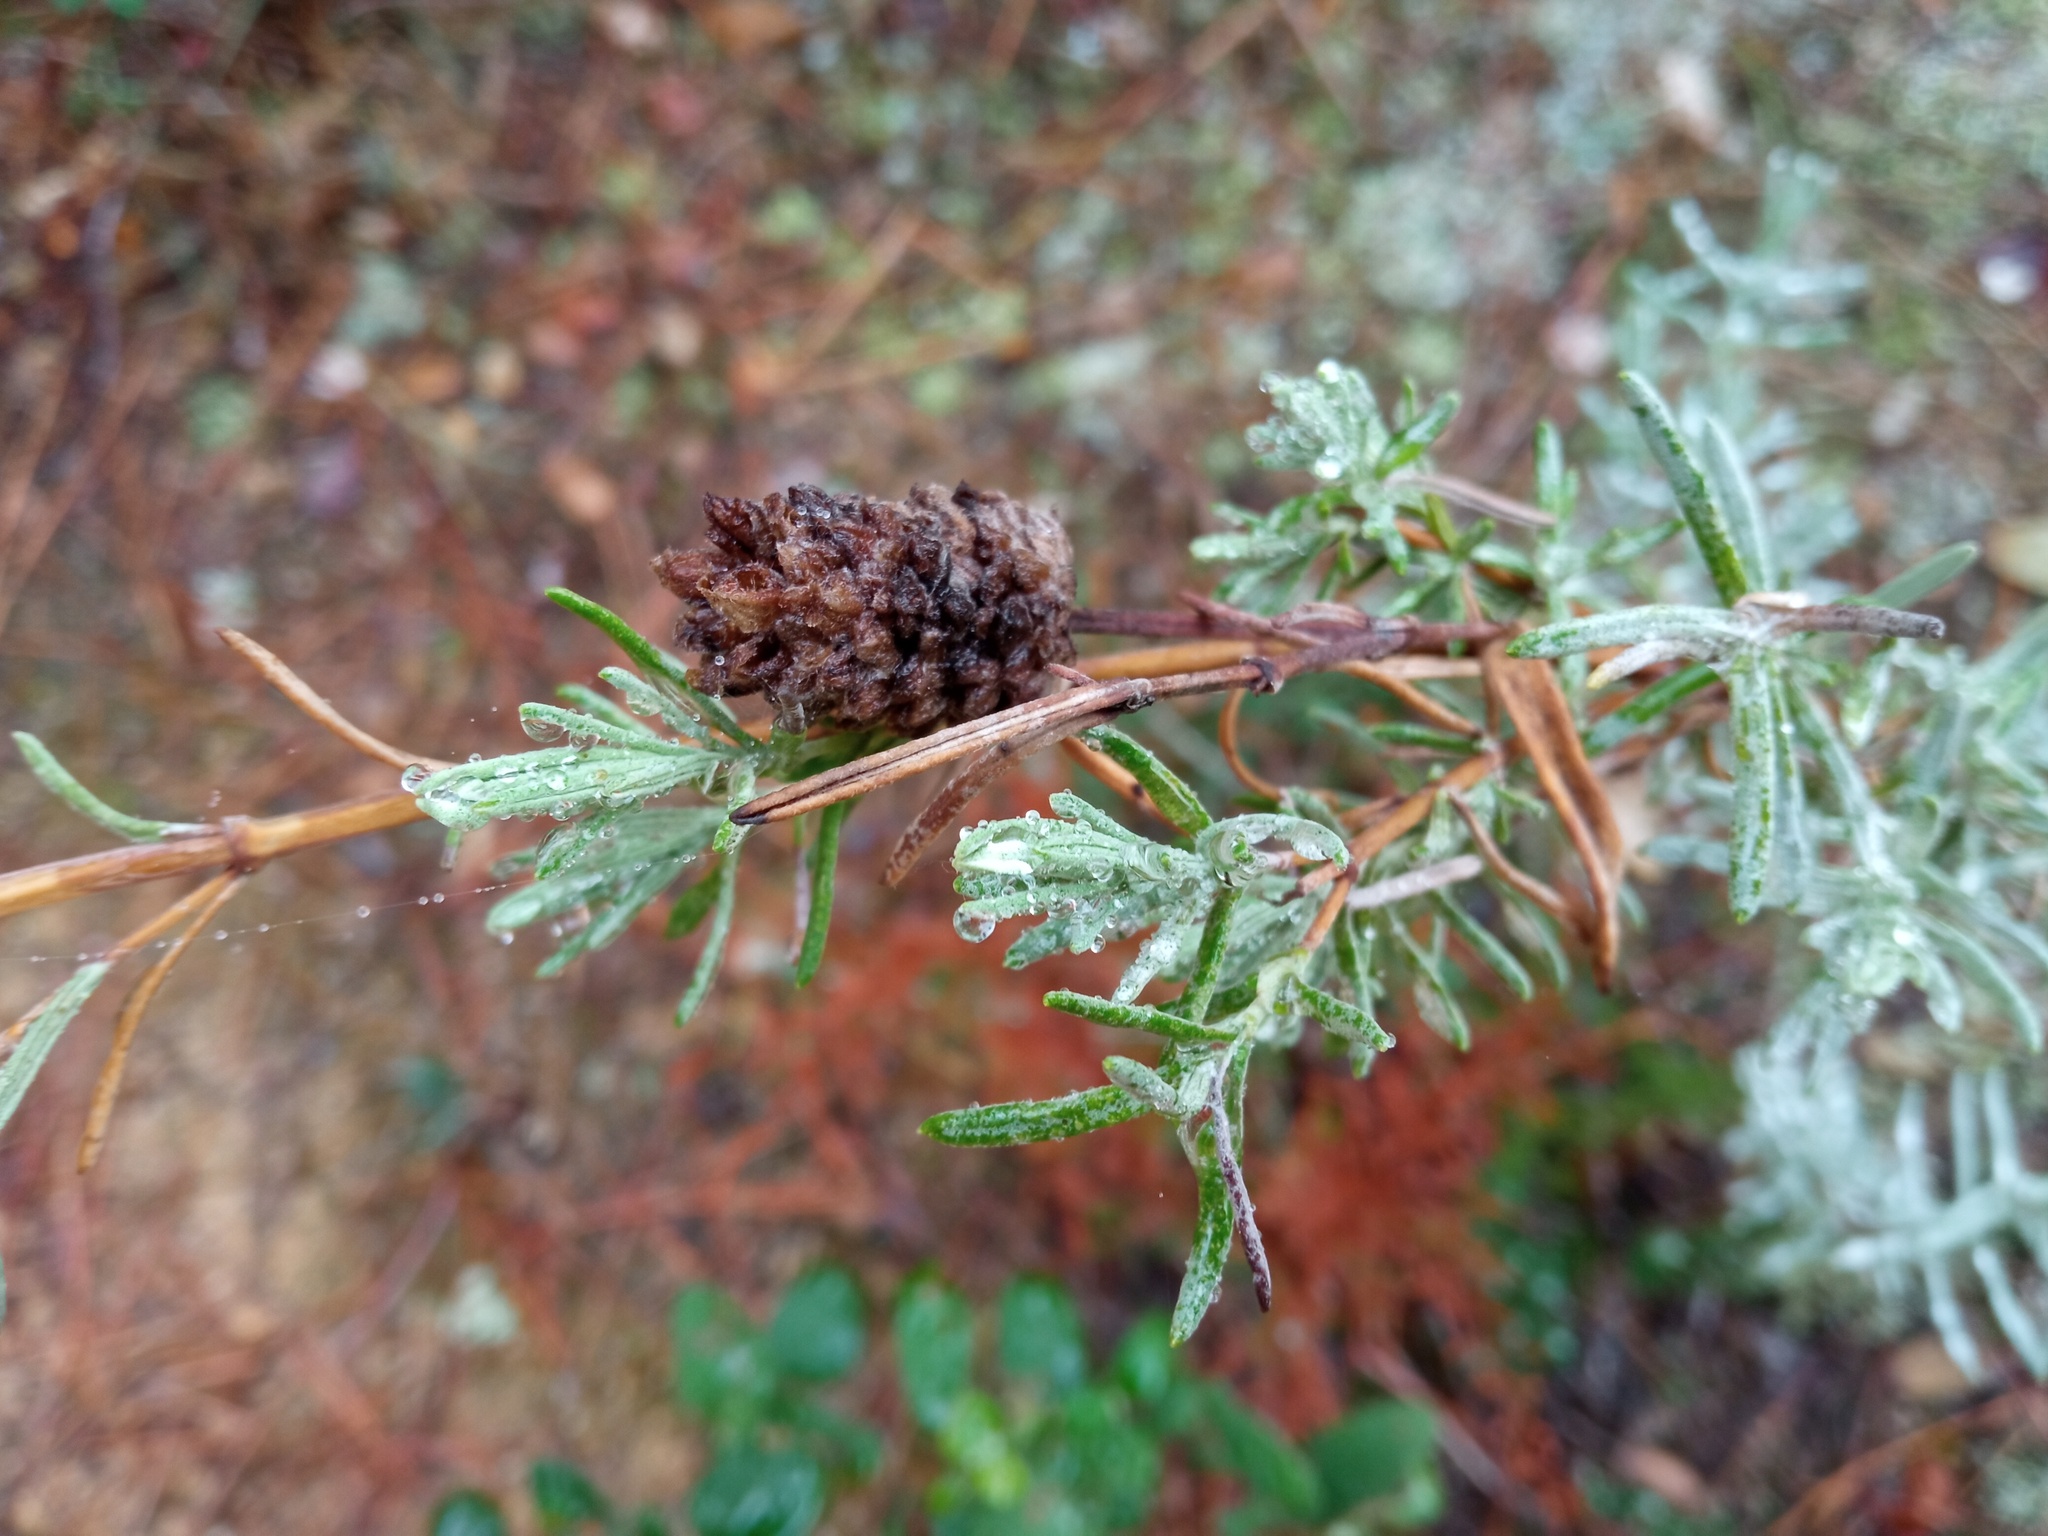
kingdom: Plantae
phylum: Tracheophyta
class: Magnoliopsida
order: Lamiales
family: Lamiaceae
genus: Lavandula
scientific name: Lavandula stoechas
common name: French lavender
